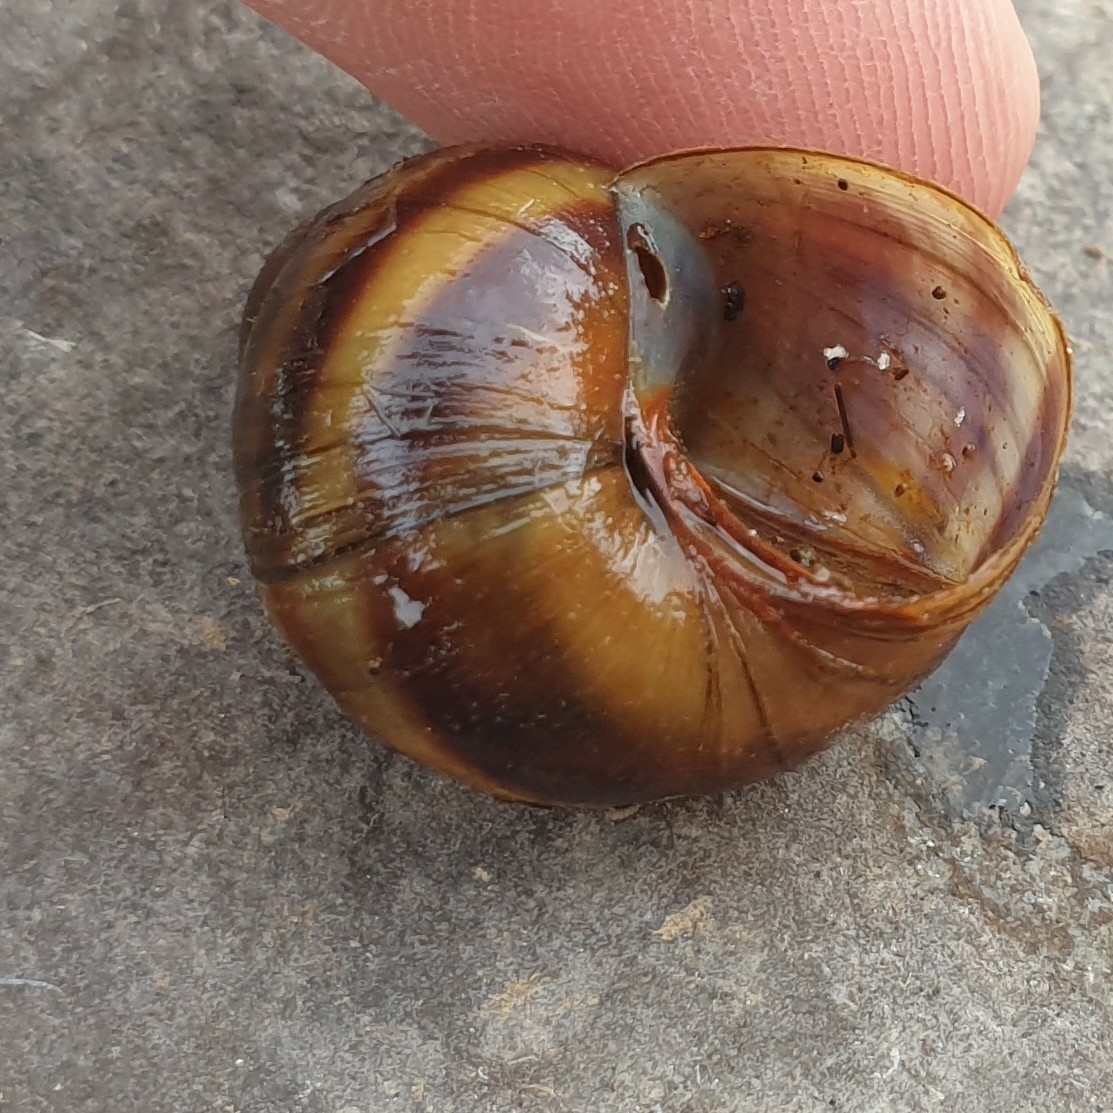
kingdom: Animalia
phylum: Mollusca
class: Gastropoda
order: Architaenioglossa
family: Viviparidae
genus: Viviparus
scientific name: Viviparus viviparus
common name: River snail
